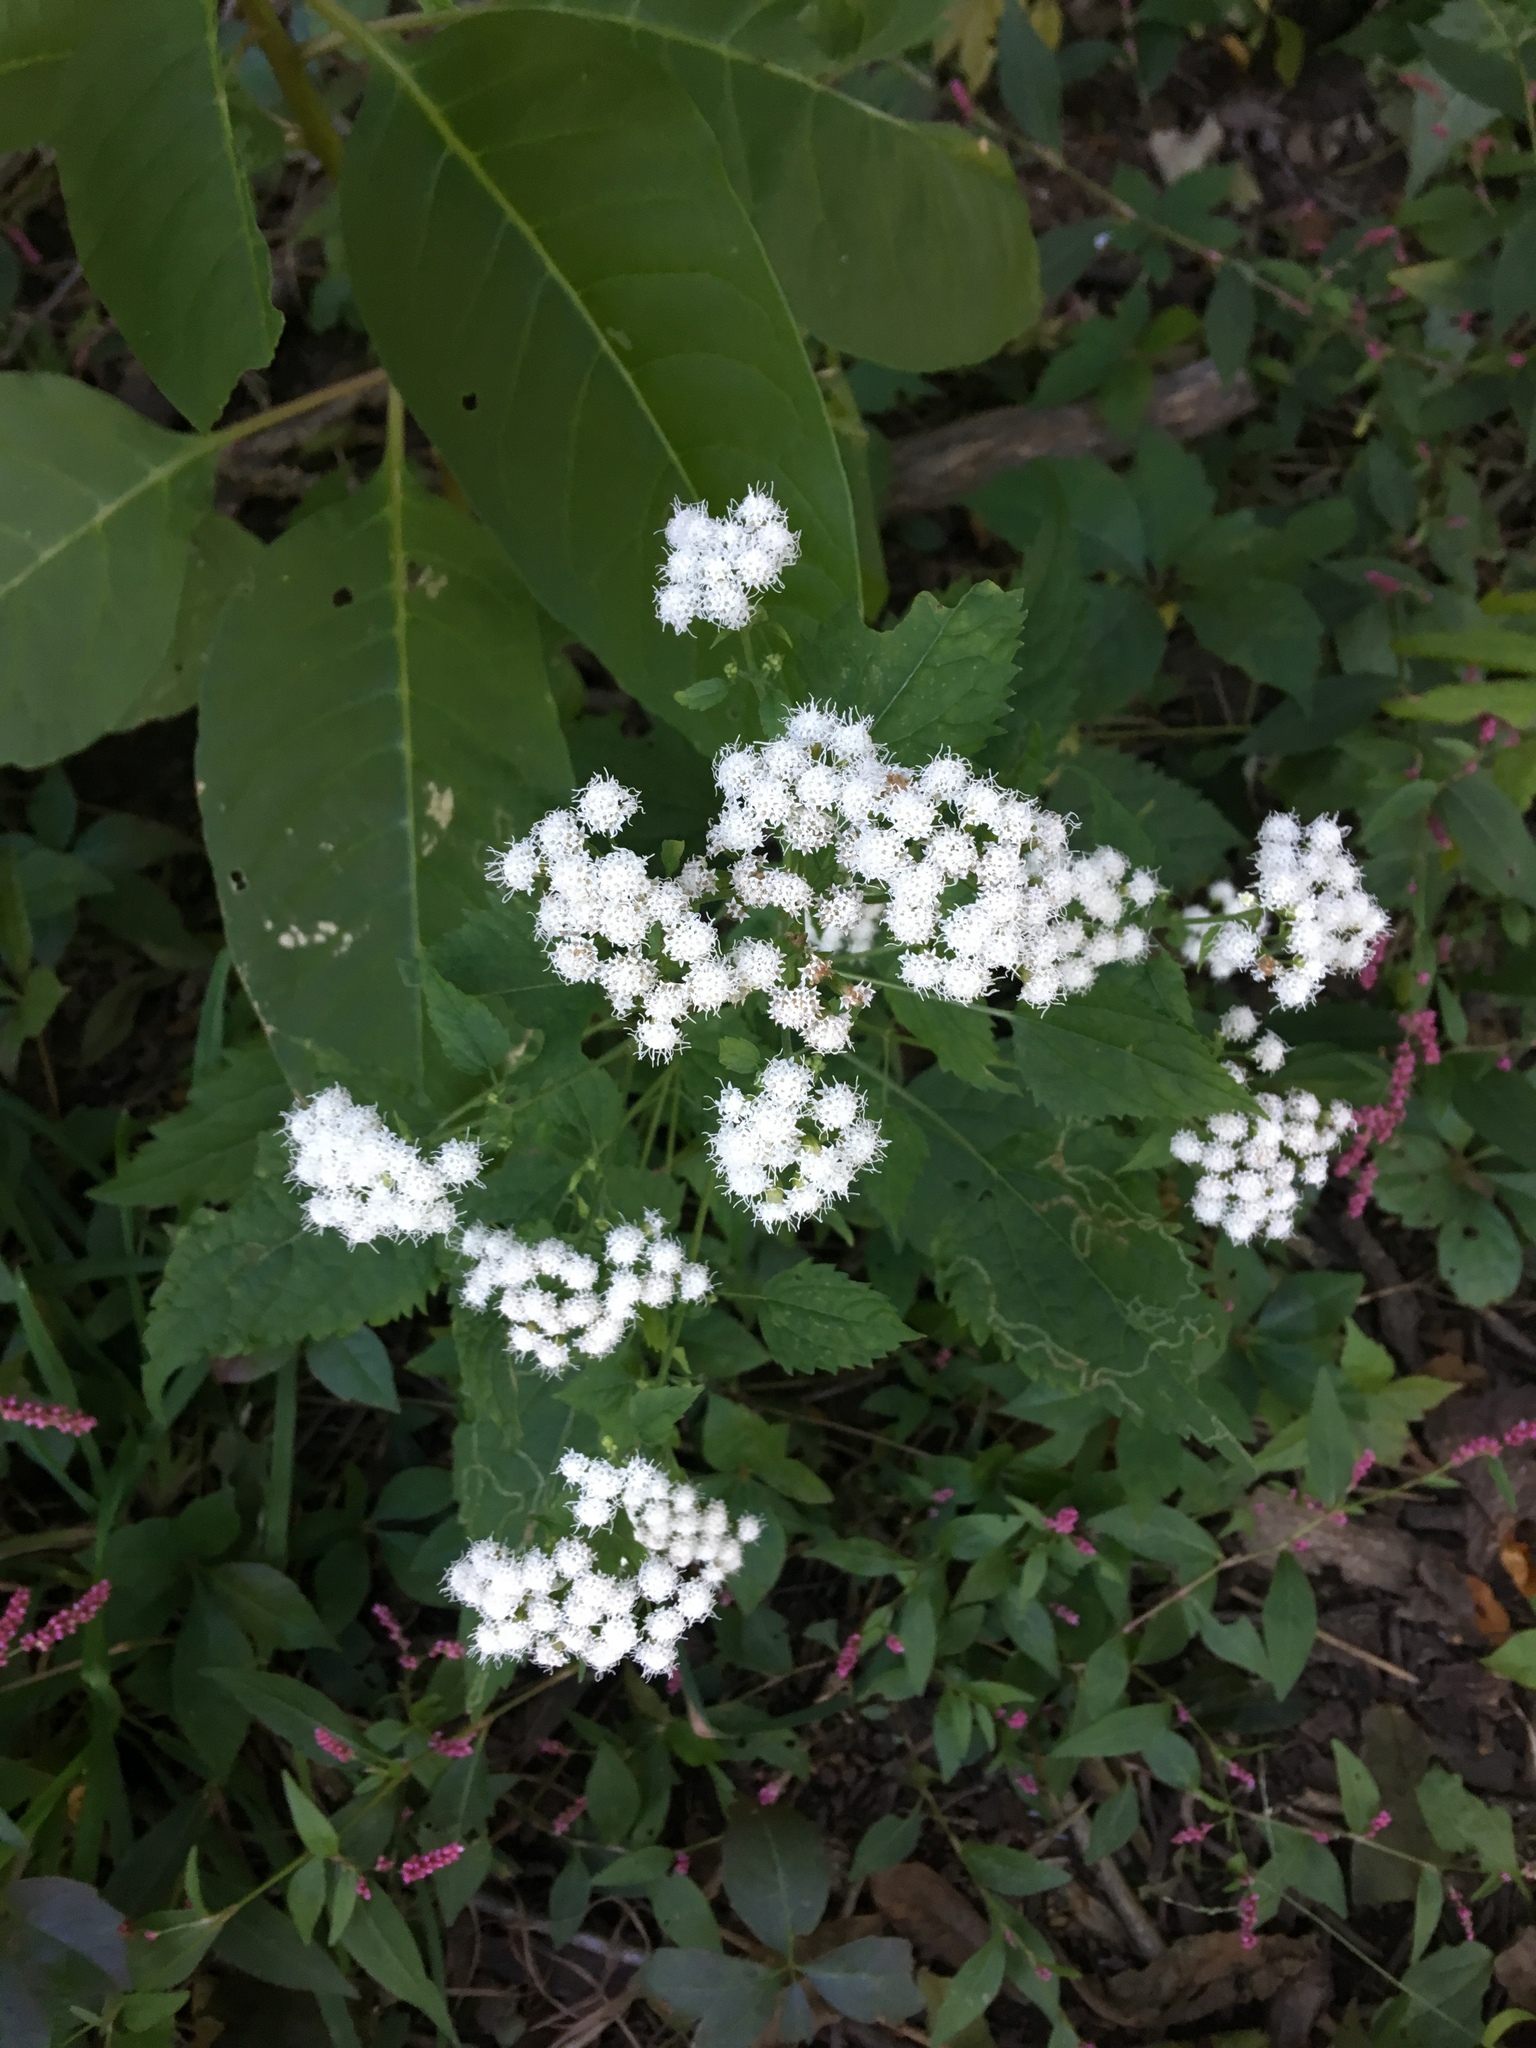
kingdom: Plantae
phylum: Tracheophyta
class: Magnoliopsida
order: Asterales
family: Asteraceae
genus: Ageratina
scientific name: Ageratina altissima
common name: White snakeroot
